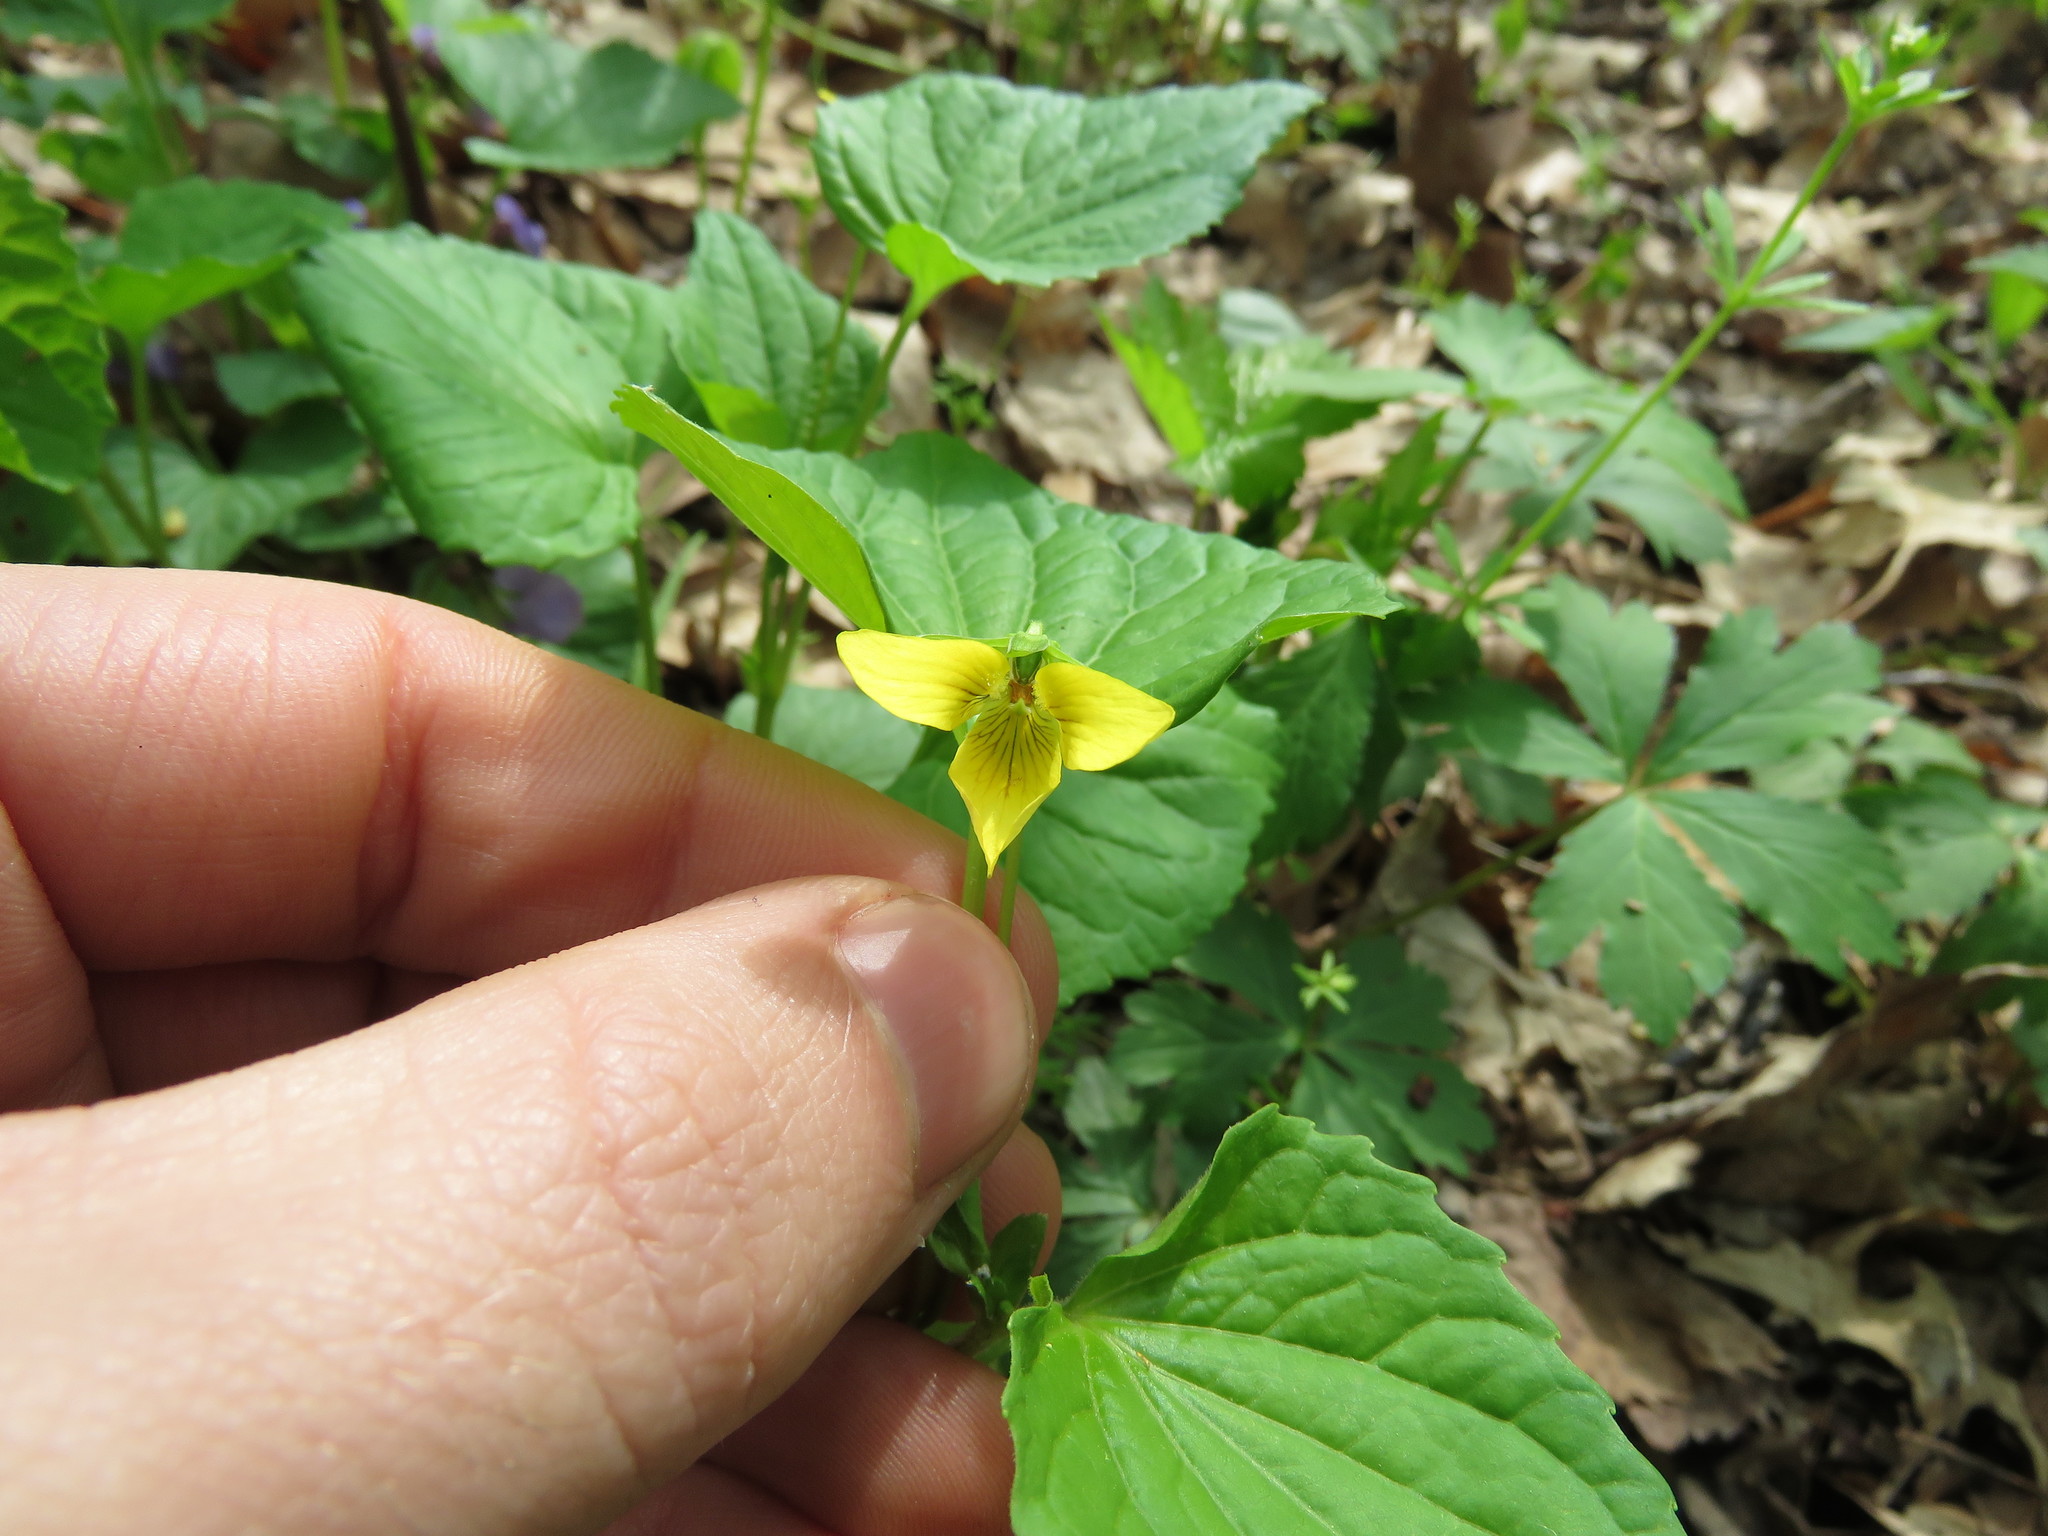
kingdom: Plantae
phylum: Tracheophyta
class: Magnoliopsida
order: Malpighiales
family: Violaceae
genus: Viola
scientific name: Viola eriocarpa
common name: Smooth yellow violet
